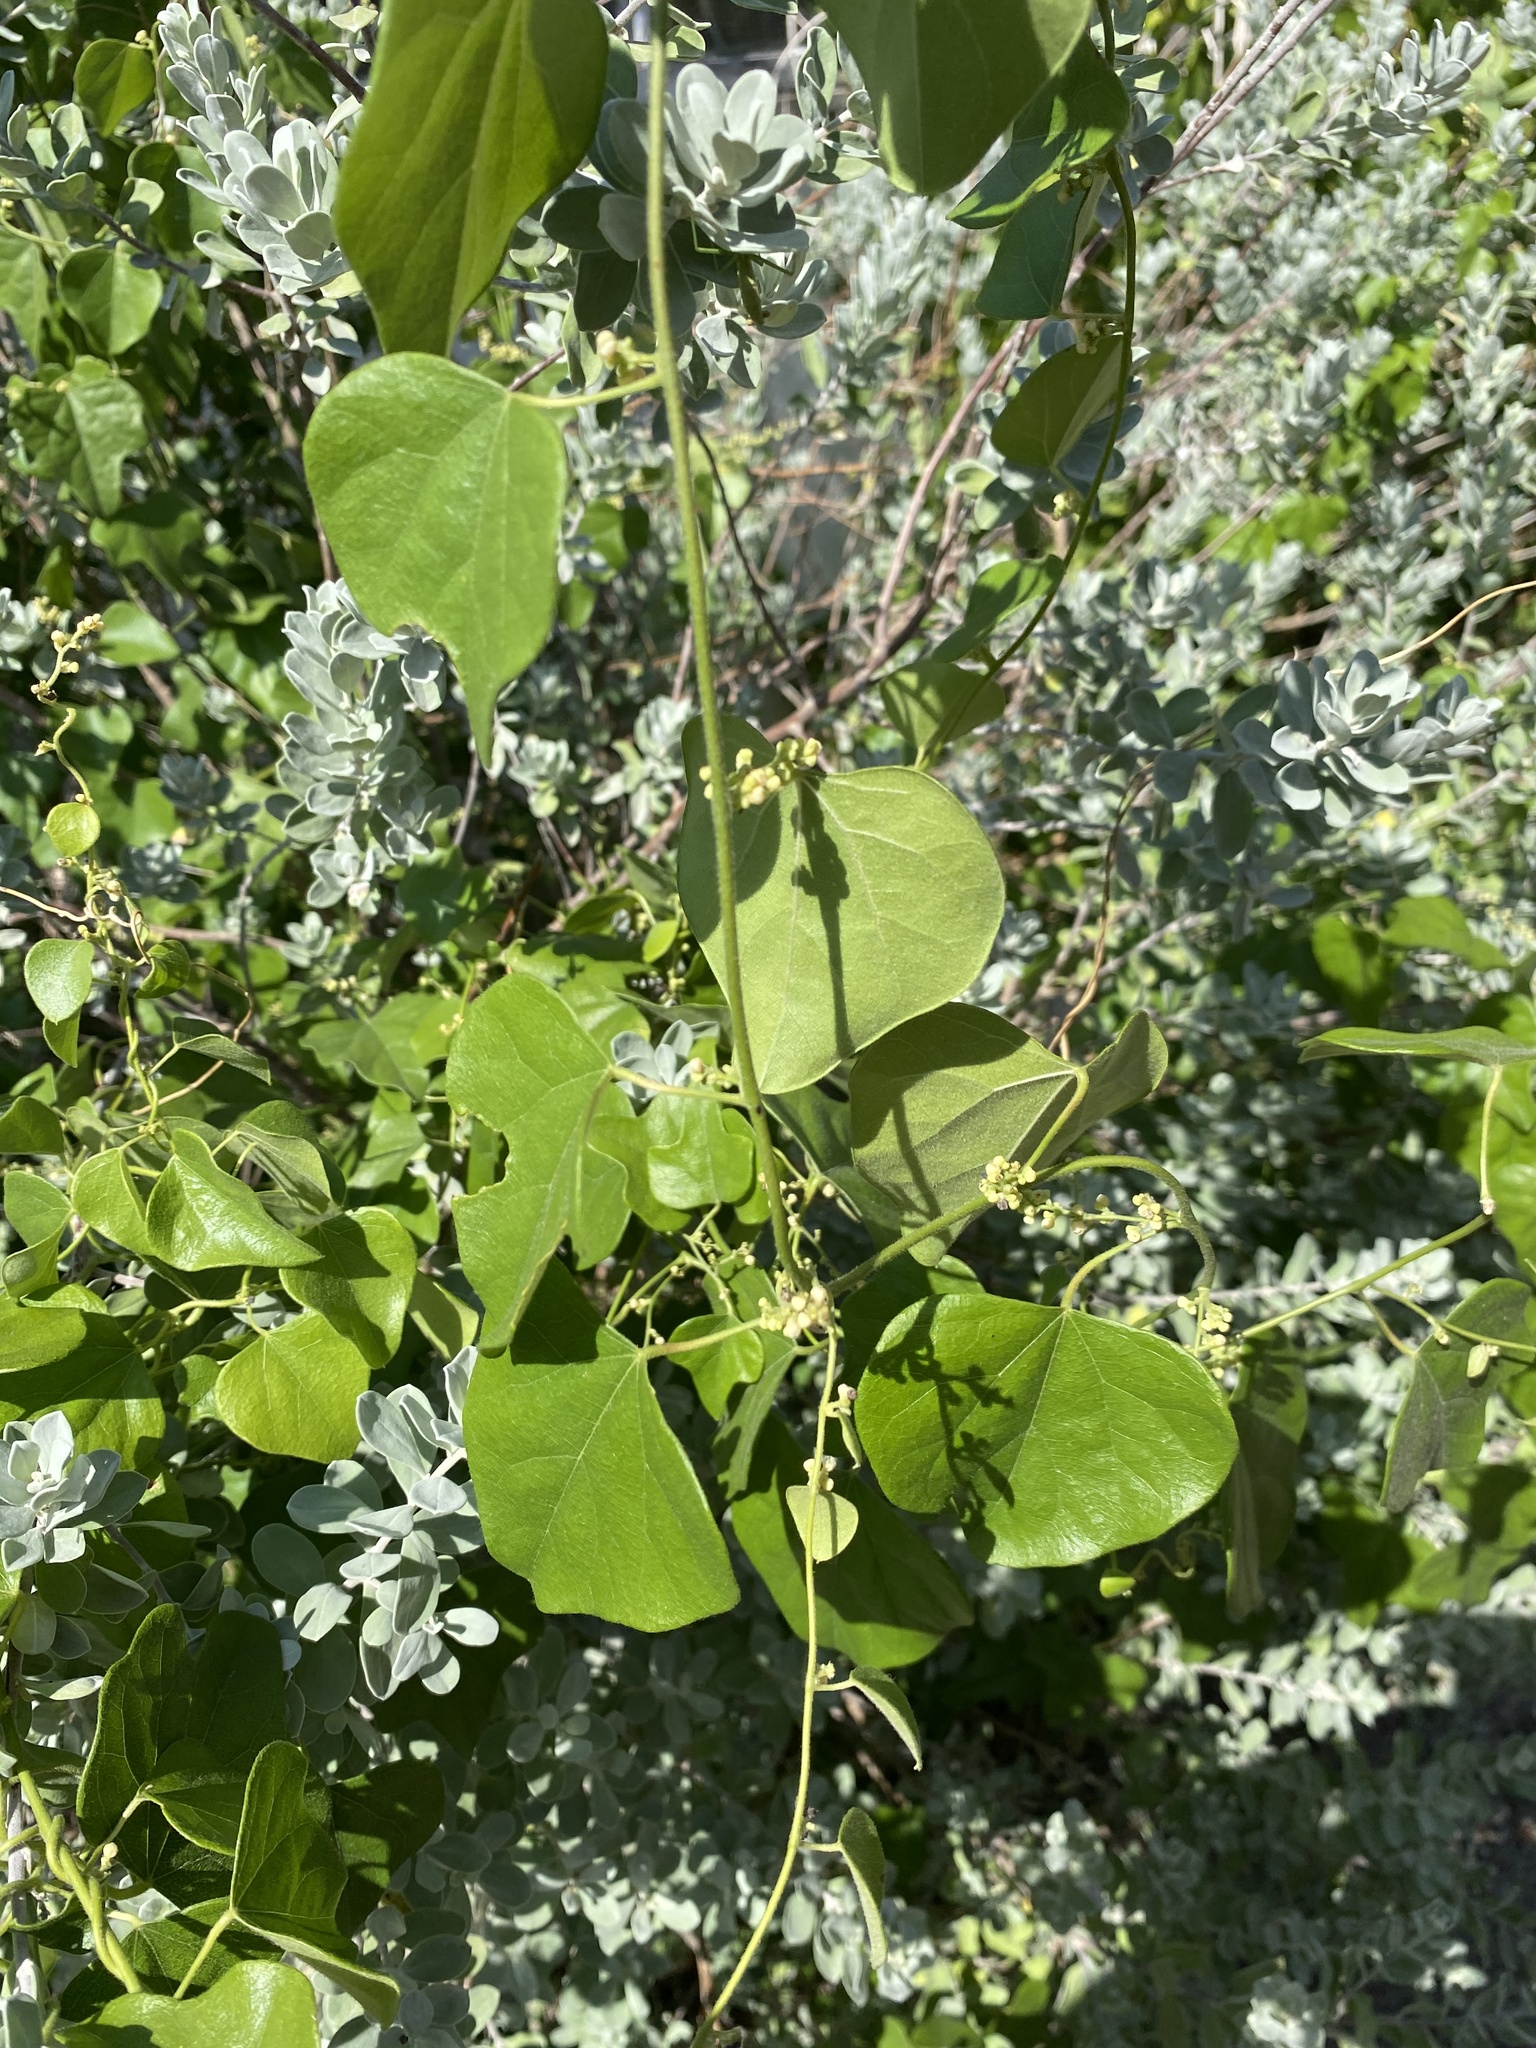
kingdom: Plantae
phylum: Tracheophyta
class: Magnoliopsida
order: Ranunculales
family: Menispermaceae
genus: Cocculus
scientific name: Cocculus carolinus
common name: Carolina moonseed
